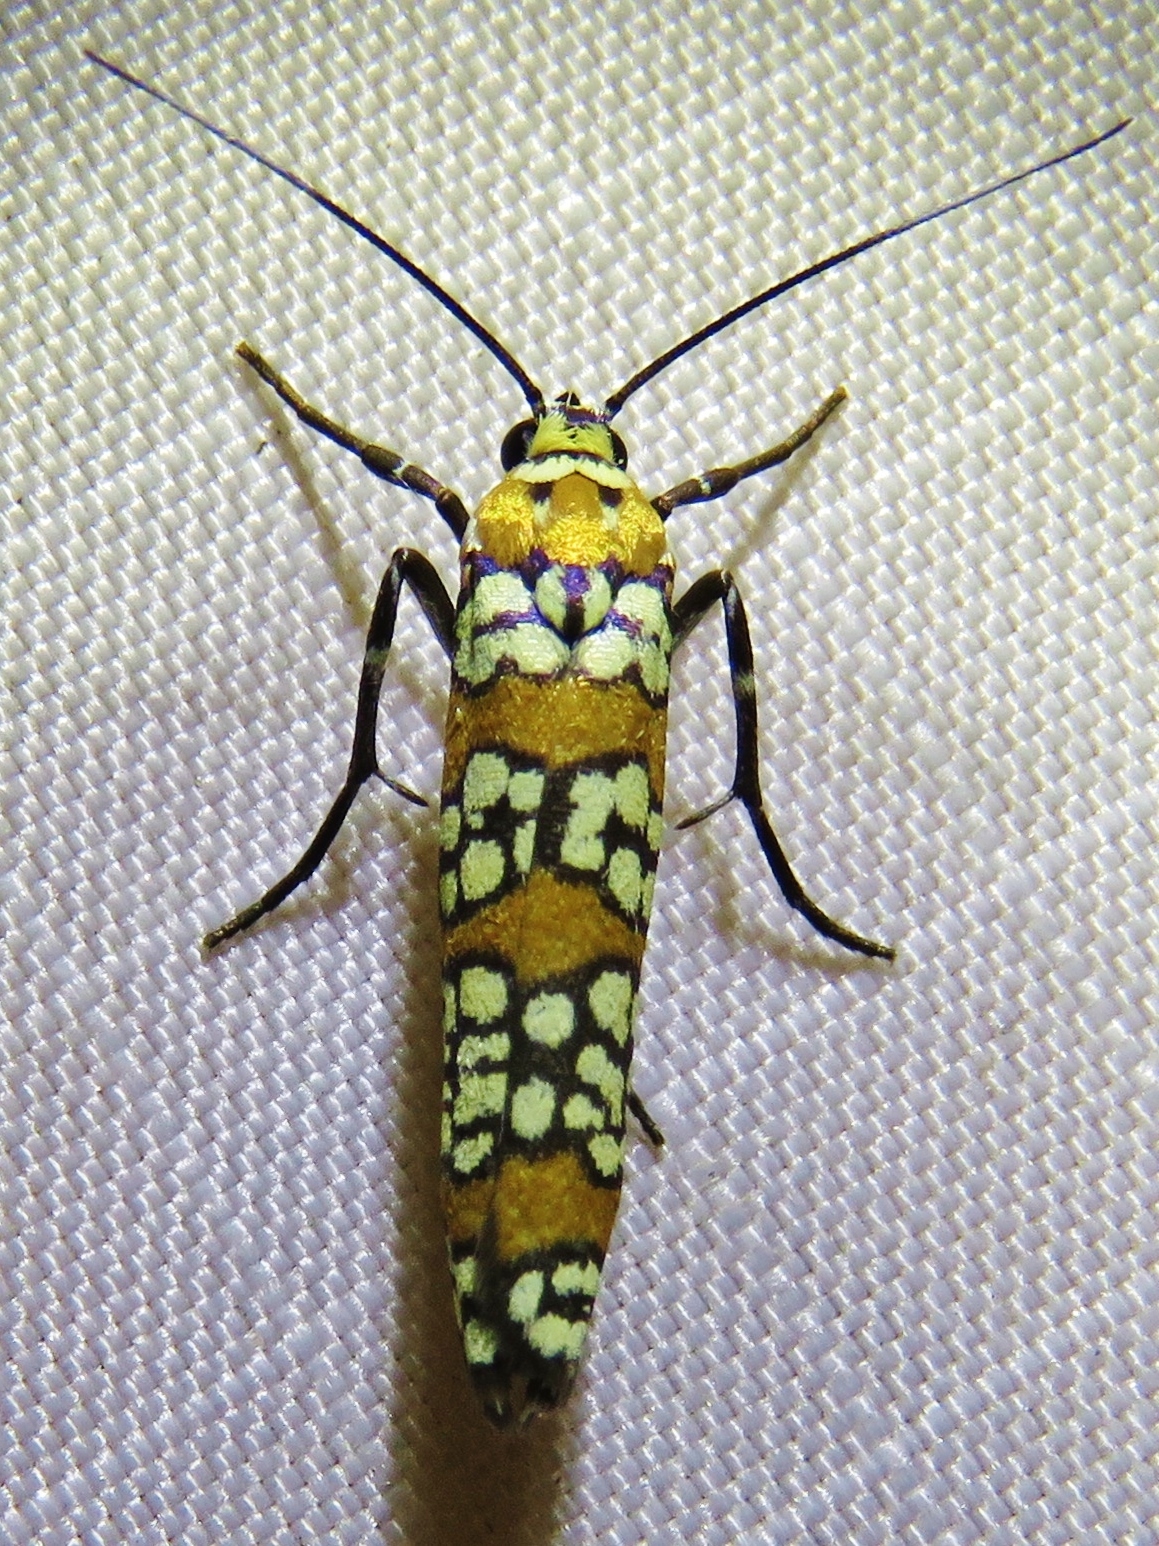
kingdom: Animalia
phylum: Arthropoda
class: Insecta
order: Lepidoptera
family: Attevidae
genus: Atteva
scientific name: Atteva punctella
